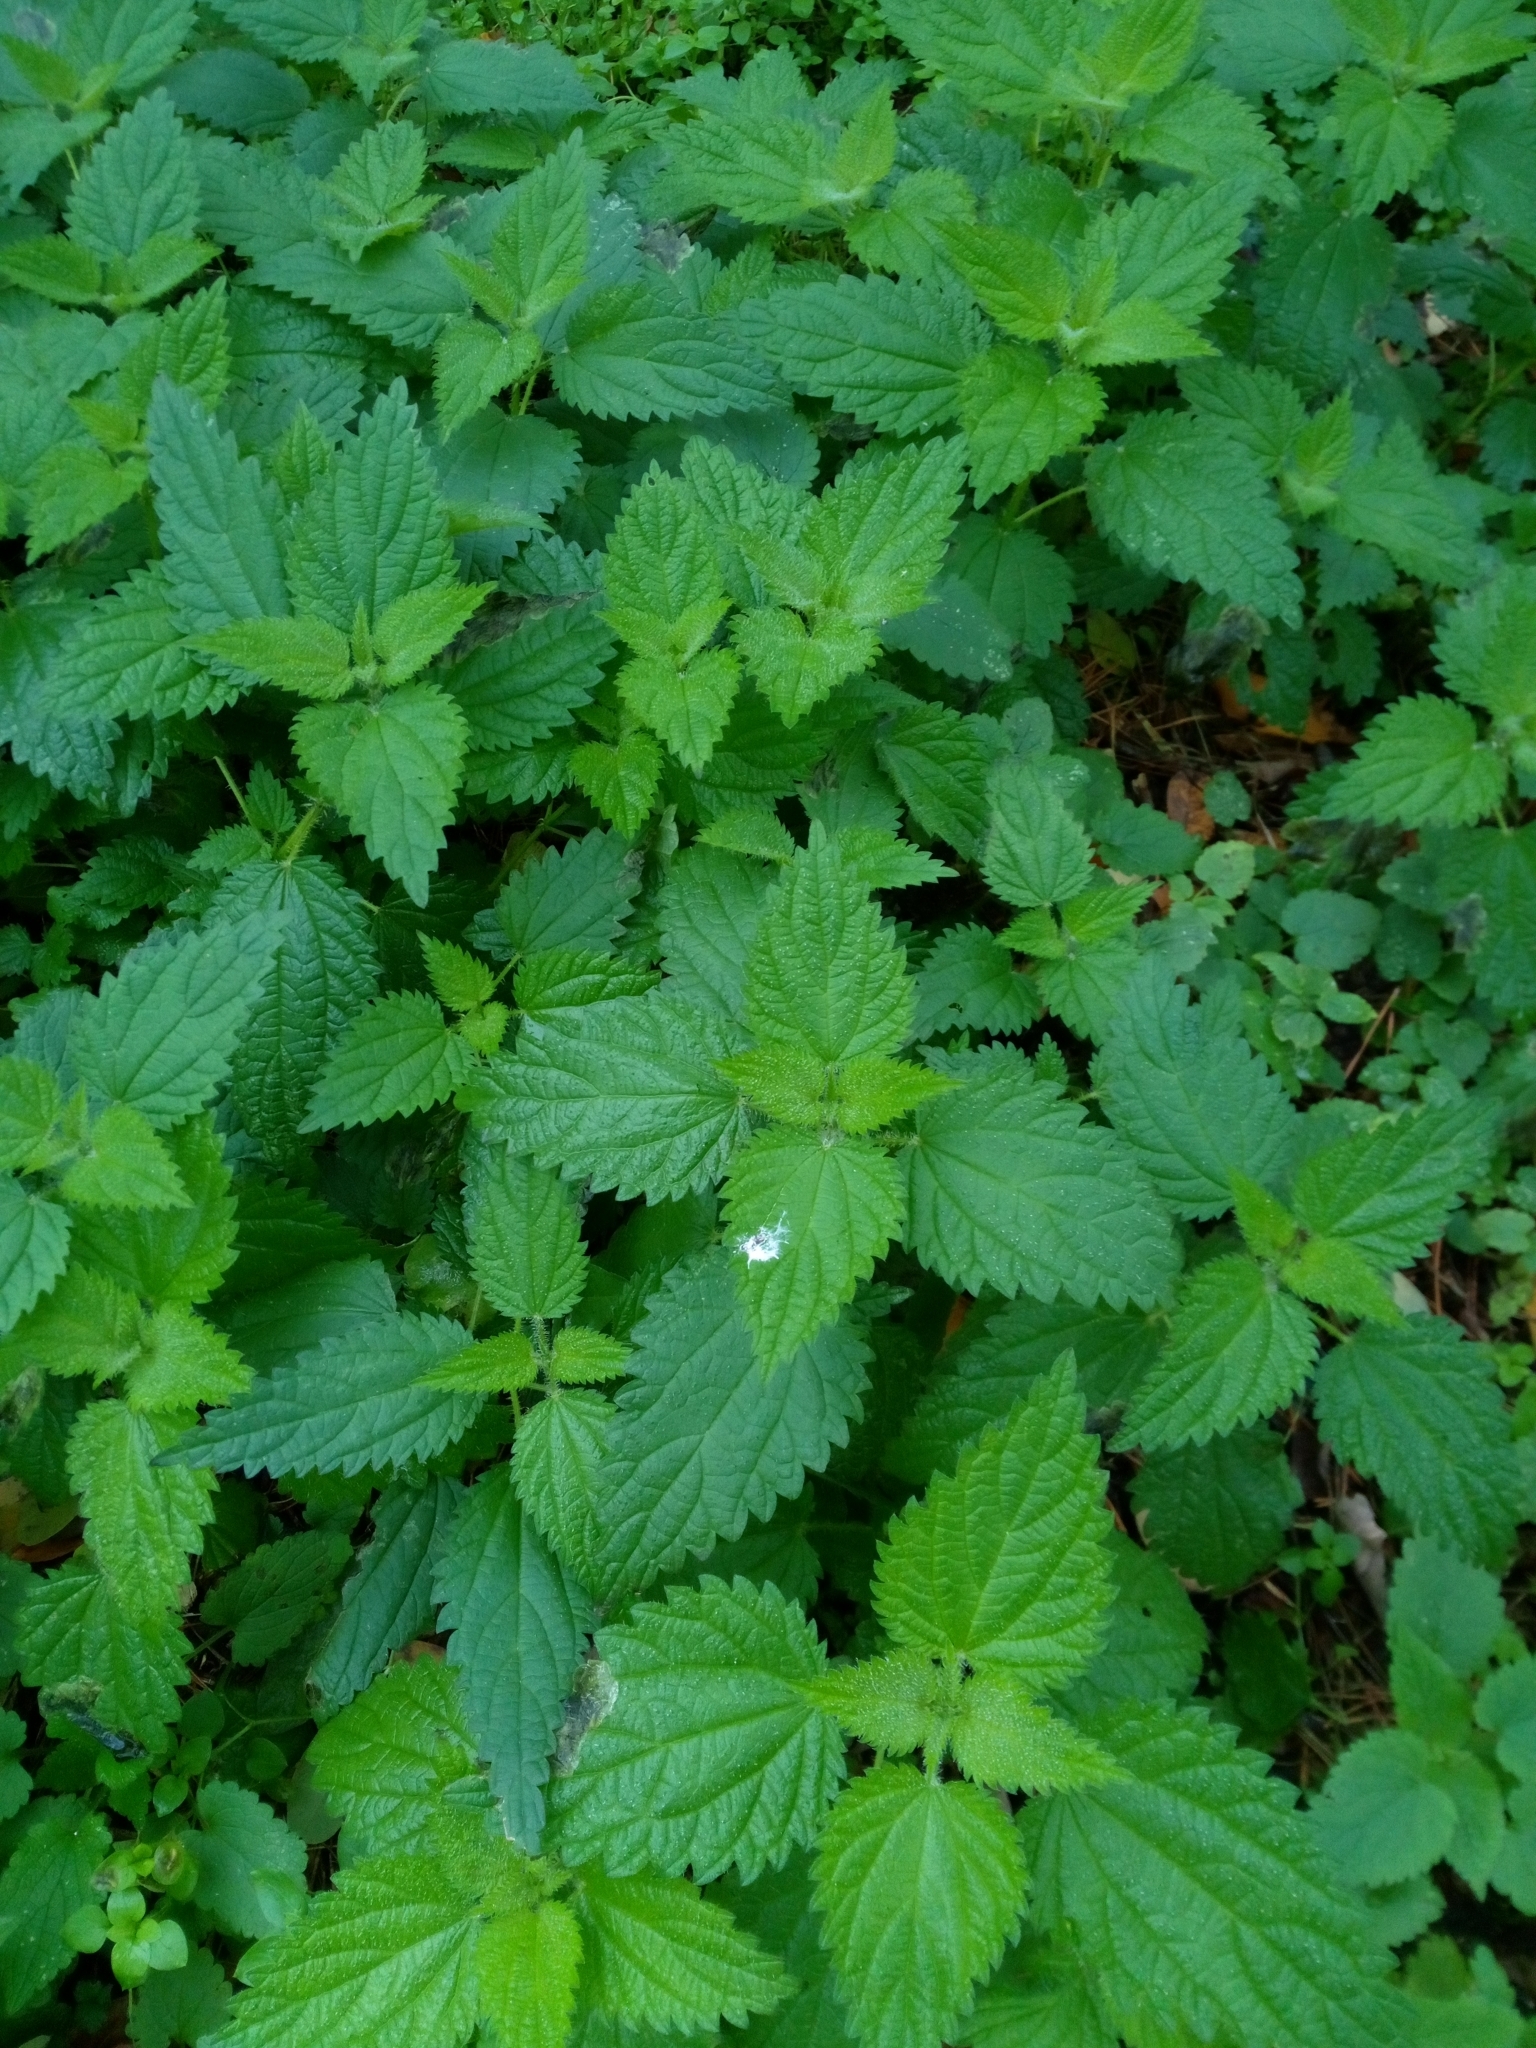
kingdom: Plantae
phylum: Tracheophyta
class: Magnoliopsida
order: Rosales
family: Urticaceae
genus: Urtica
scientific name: Urtica dioica
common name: Common nettle
